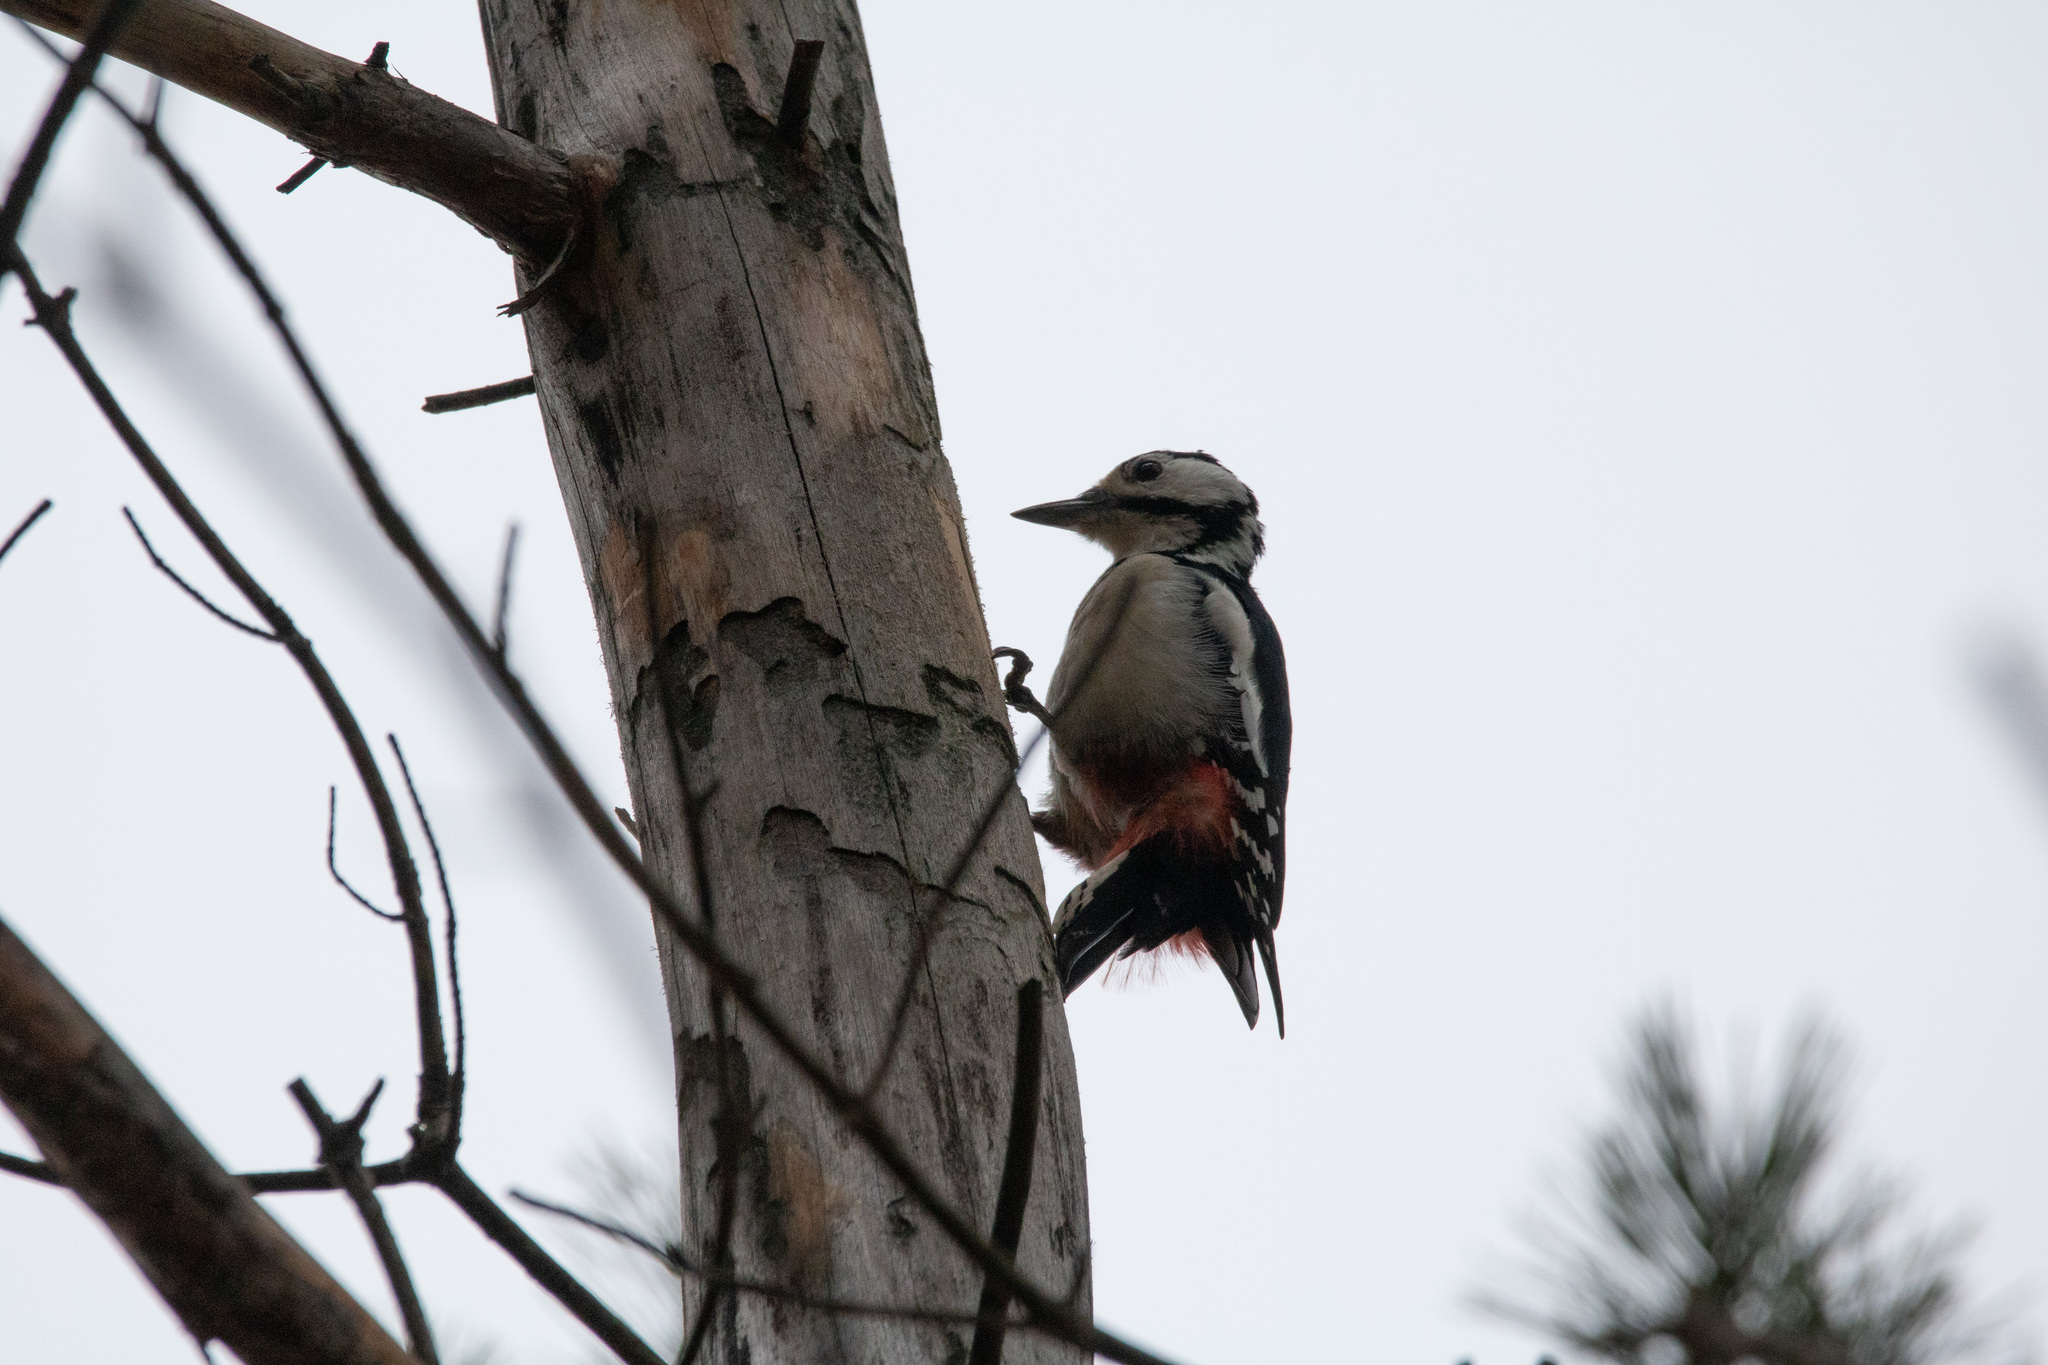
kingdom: Animalia
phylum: Chordata
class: Aves
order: Piciformes
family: Picidae
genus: Dendrocopos
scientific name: Dendrocopos major
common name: Great spotted woodpecker
